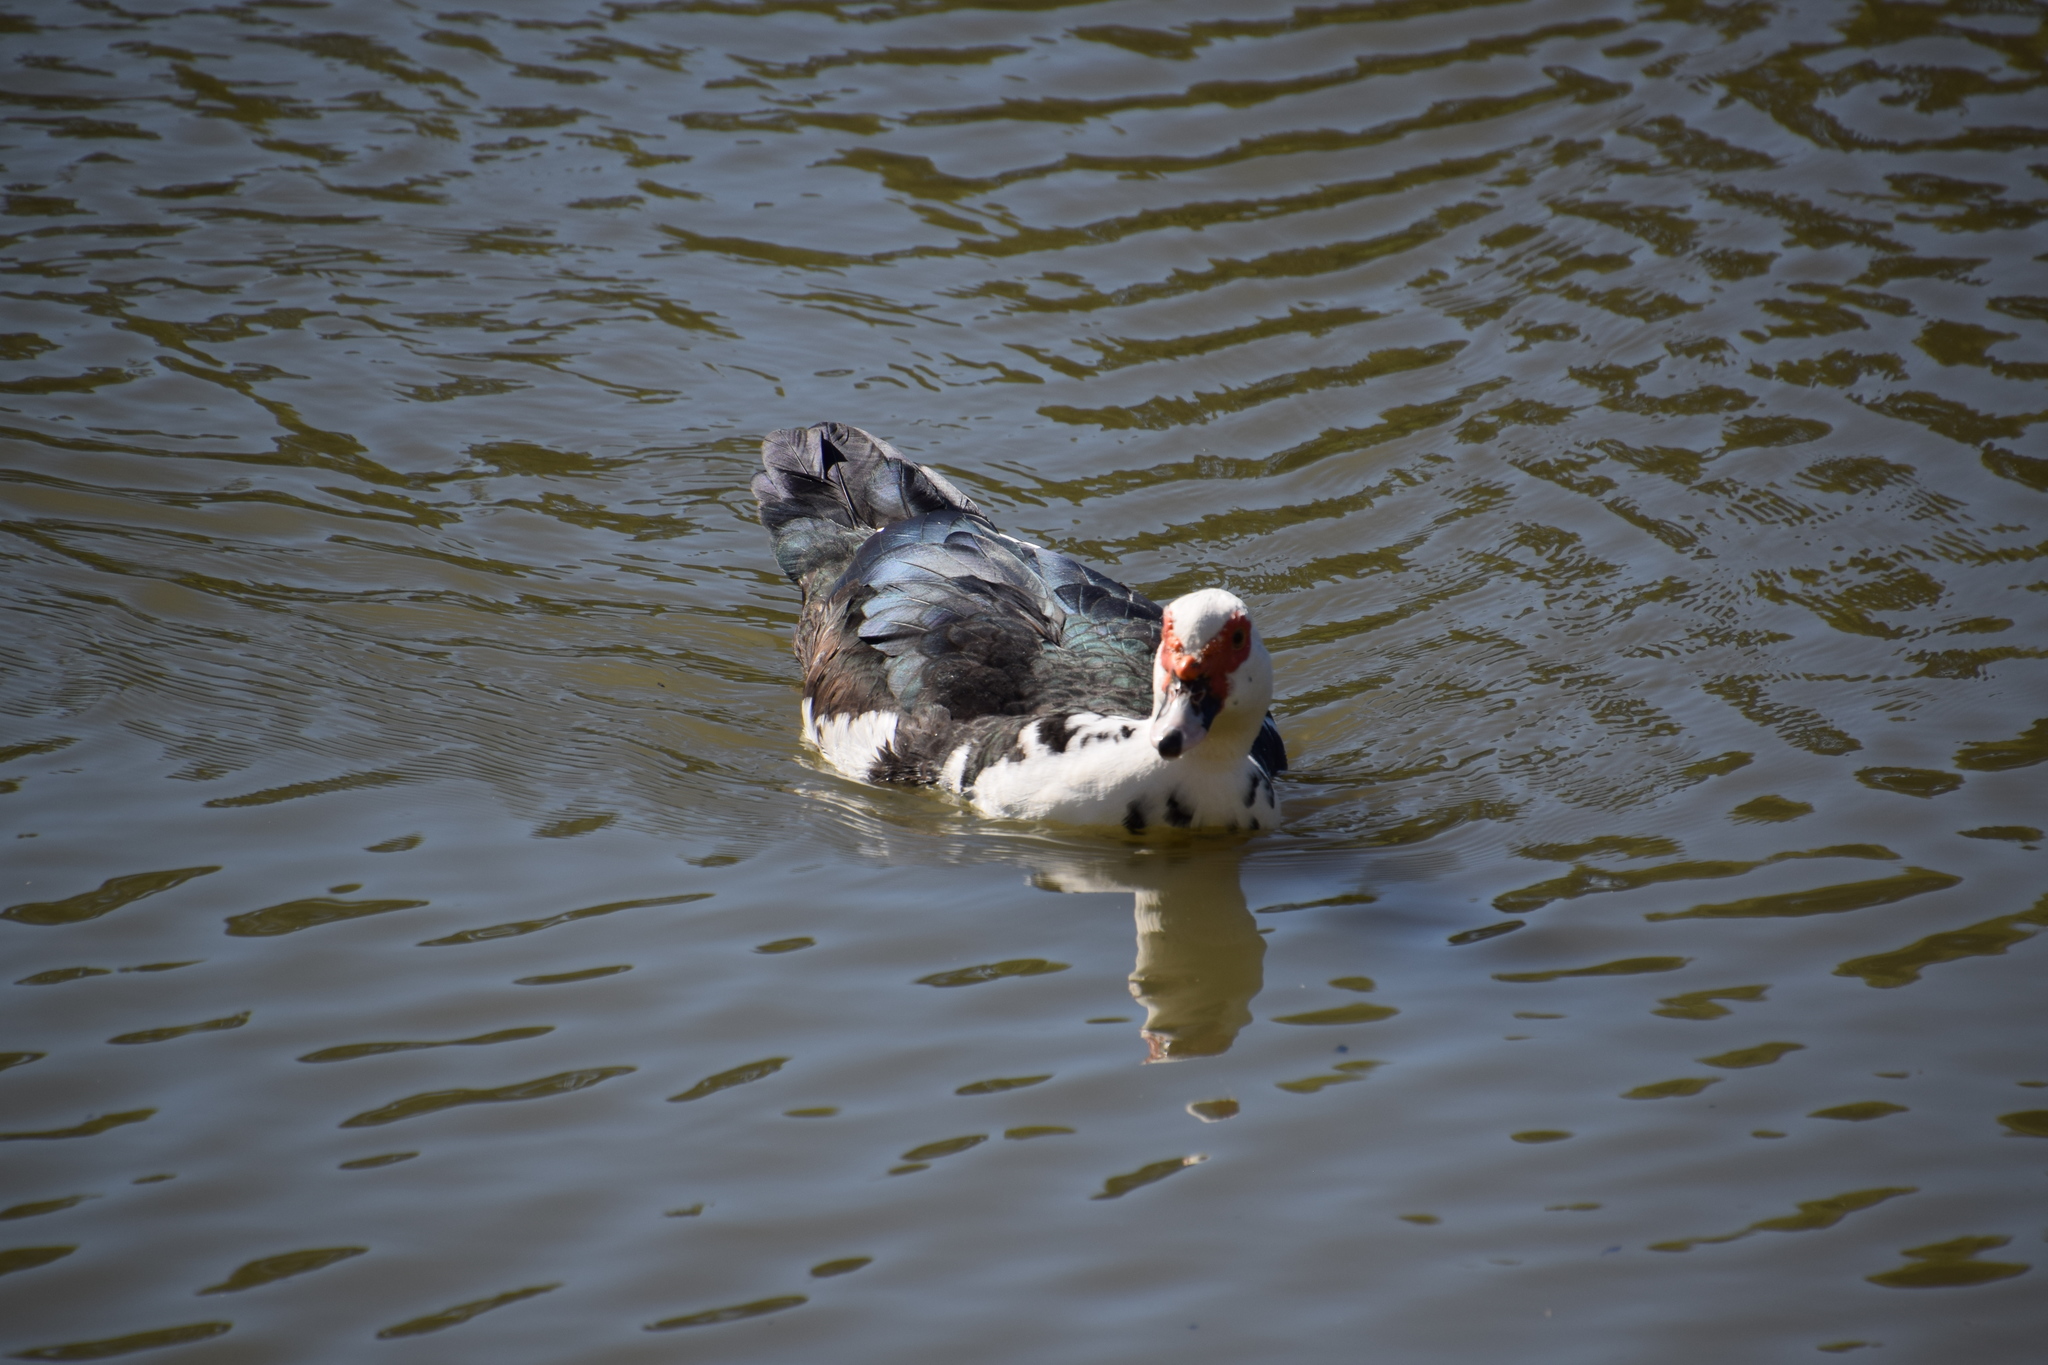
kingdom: Animalia
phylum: Chordata
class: Aves
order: Anseriformes
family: Anatidae
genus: Cairina
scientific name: Cairina moschata
